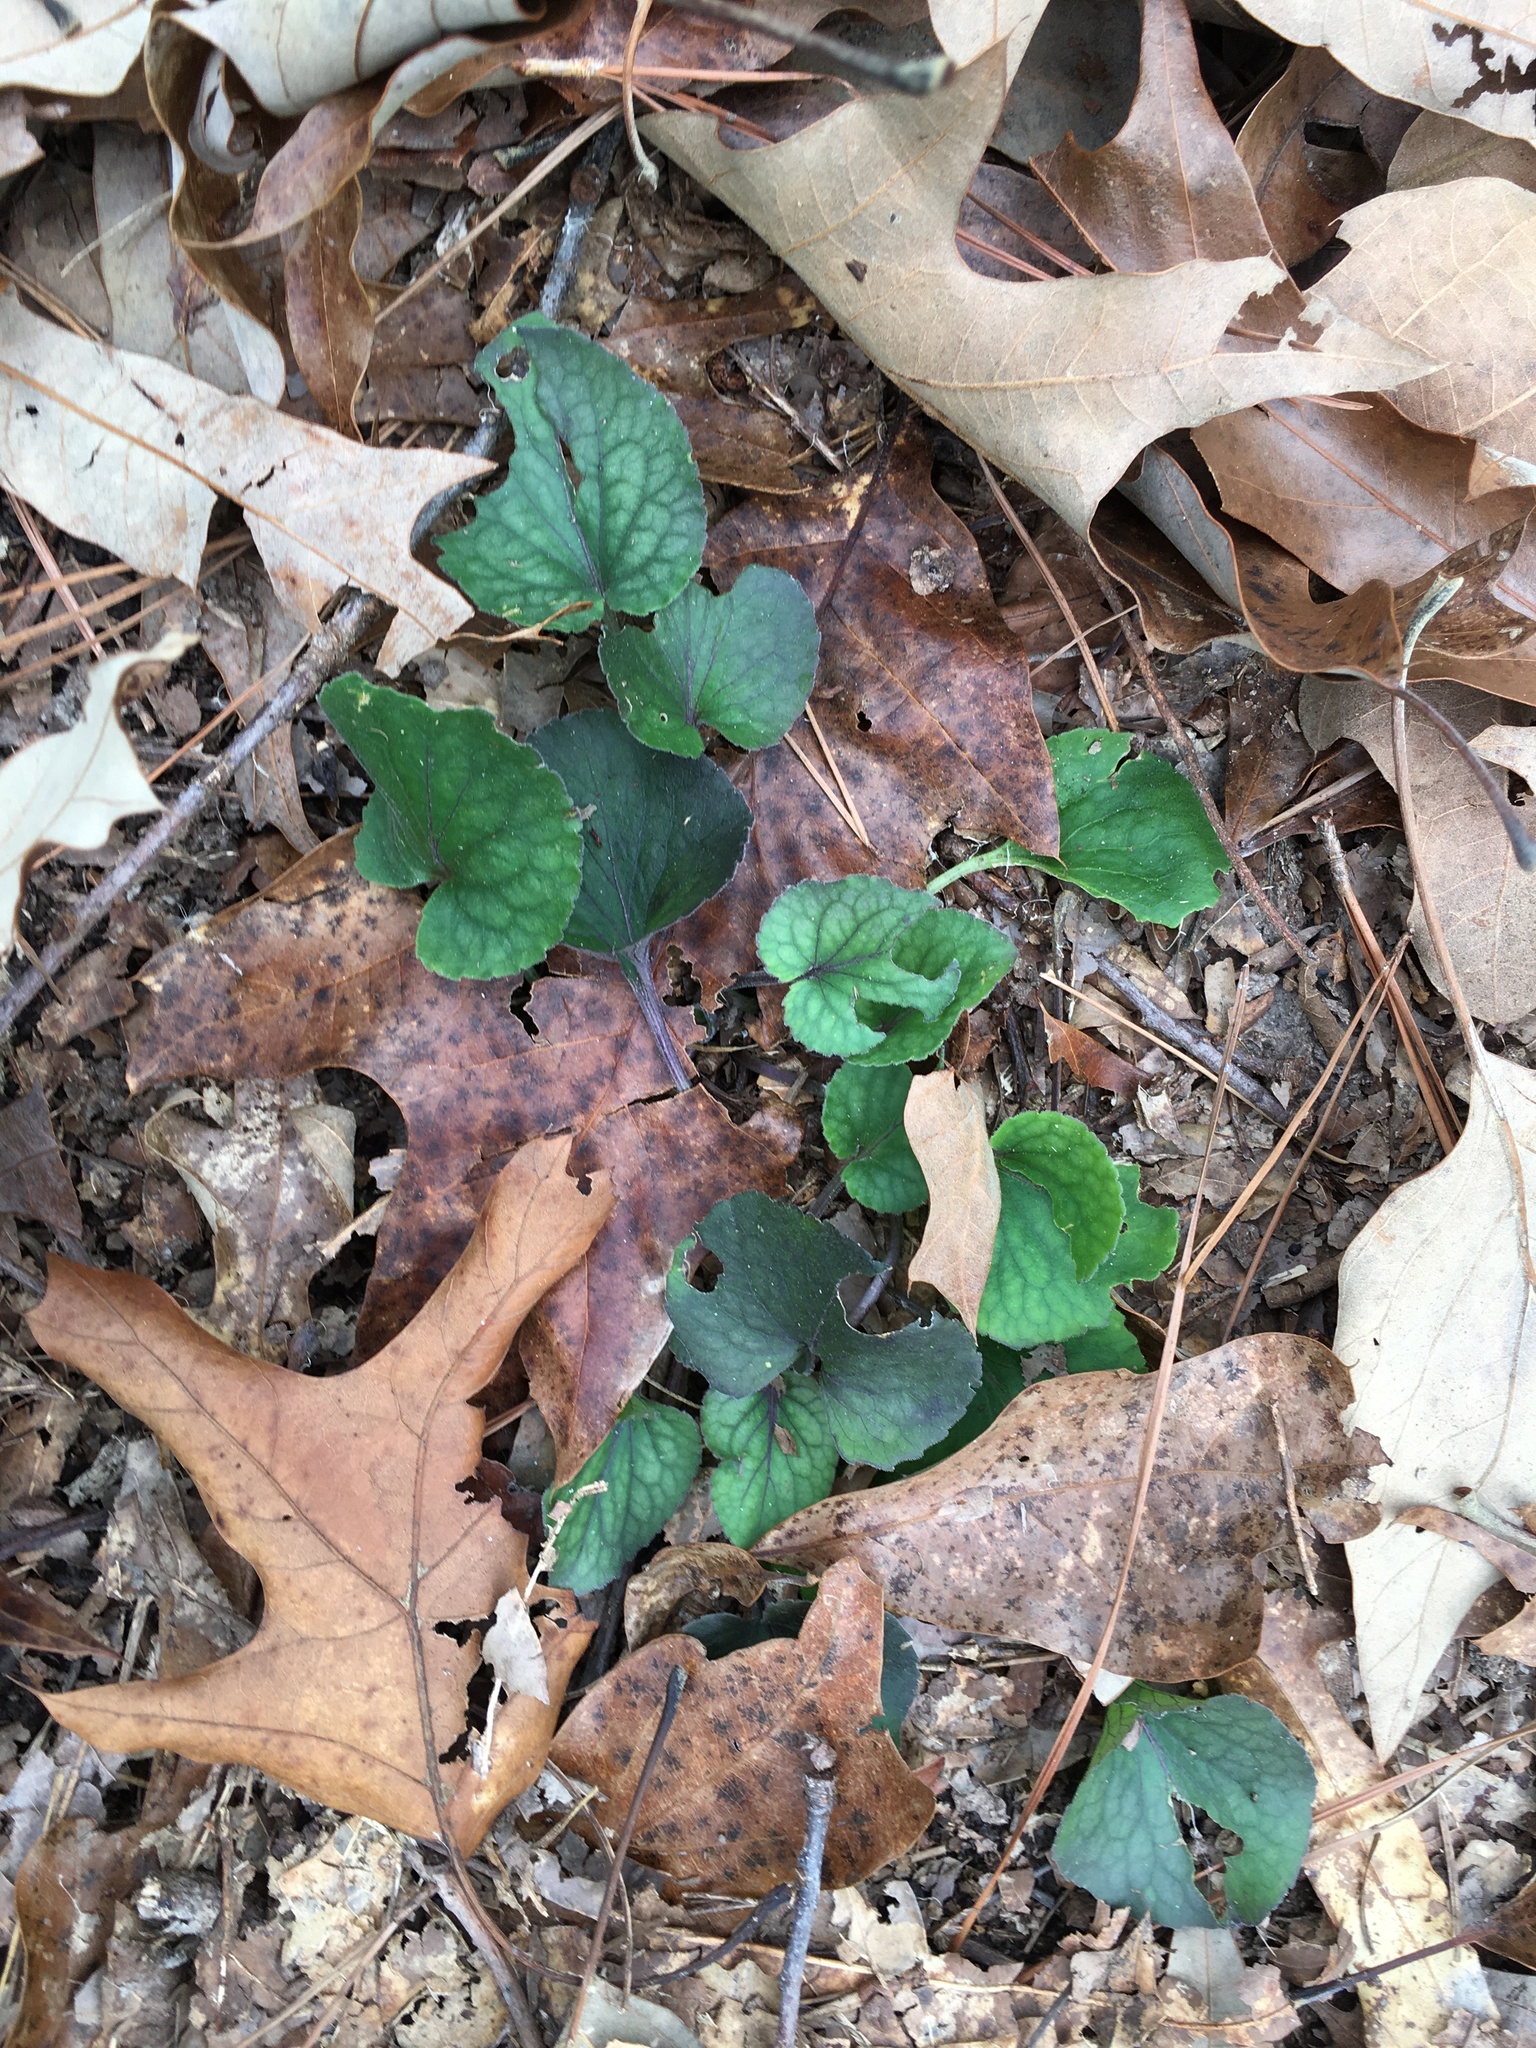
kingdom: Plantae
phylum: Tracheophyta
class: Magnoliopsida
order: Malpighiales
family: Violaceae
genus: Viola
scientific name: Viola hirsutula
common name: Southern wood violet
